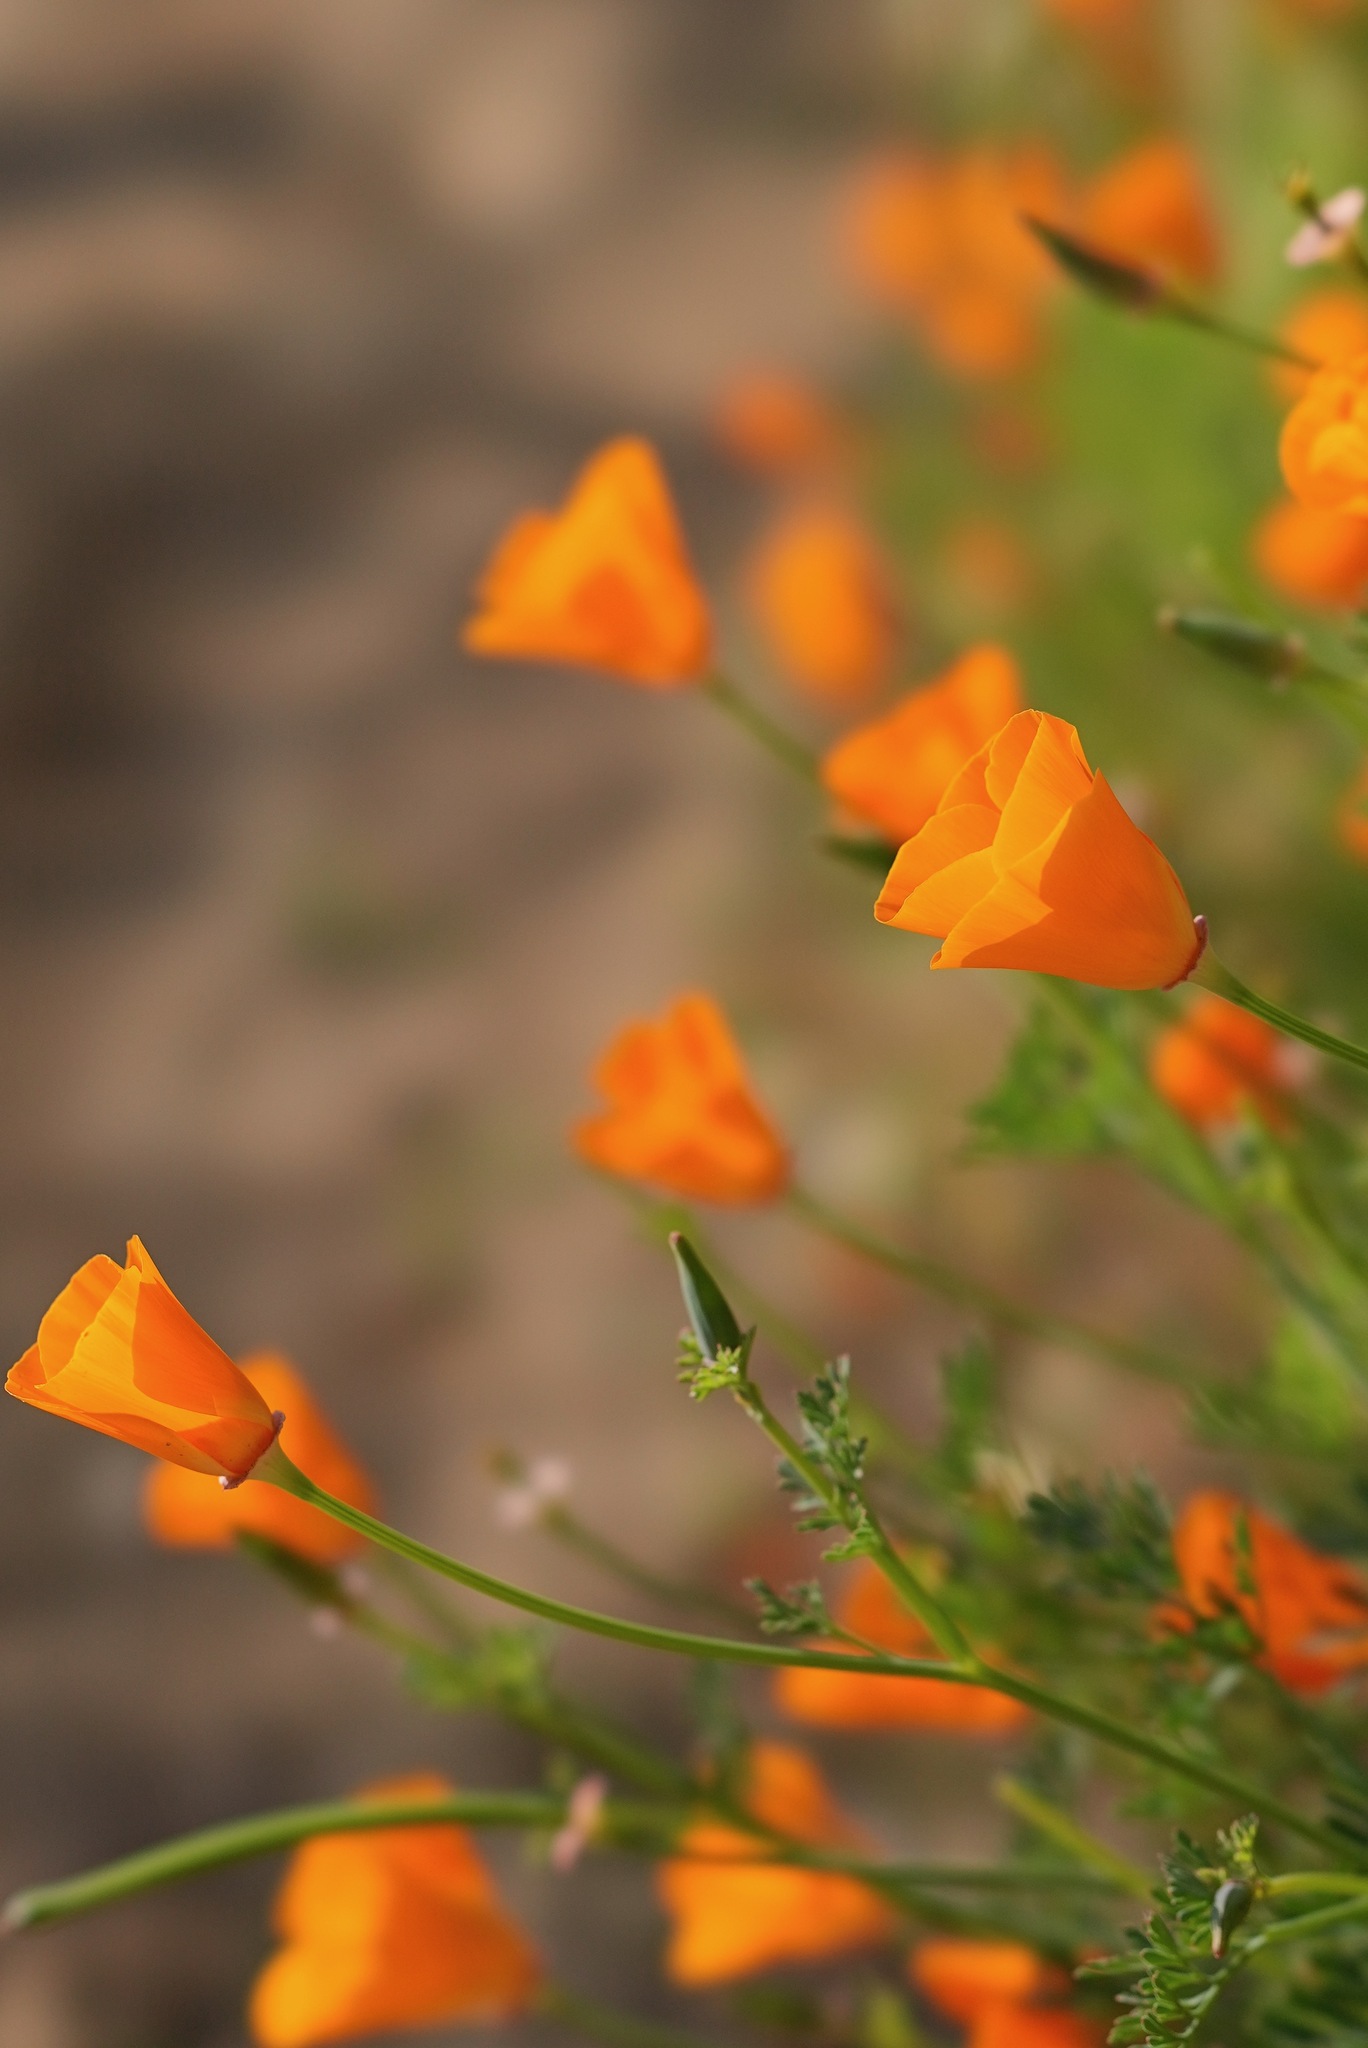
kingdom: Plantae
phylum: Tracheophyta
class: Magnoliopsida
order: Ranunculales
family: Papaveraceae
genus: Eschscholzia
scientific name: Eschscholzia californica
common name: California poppy
